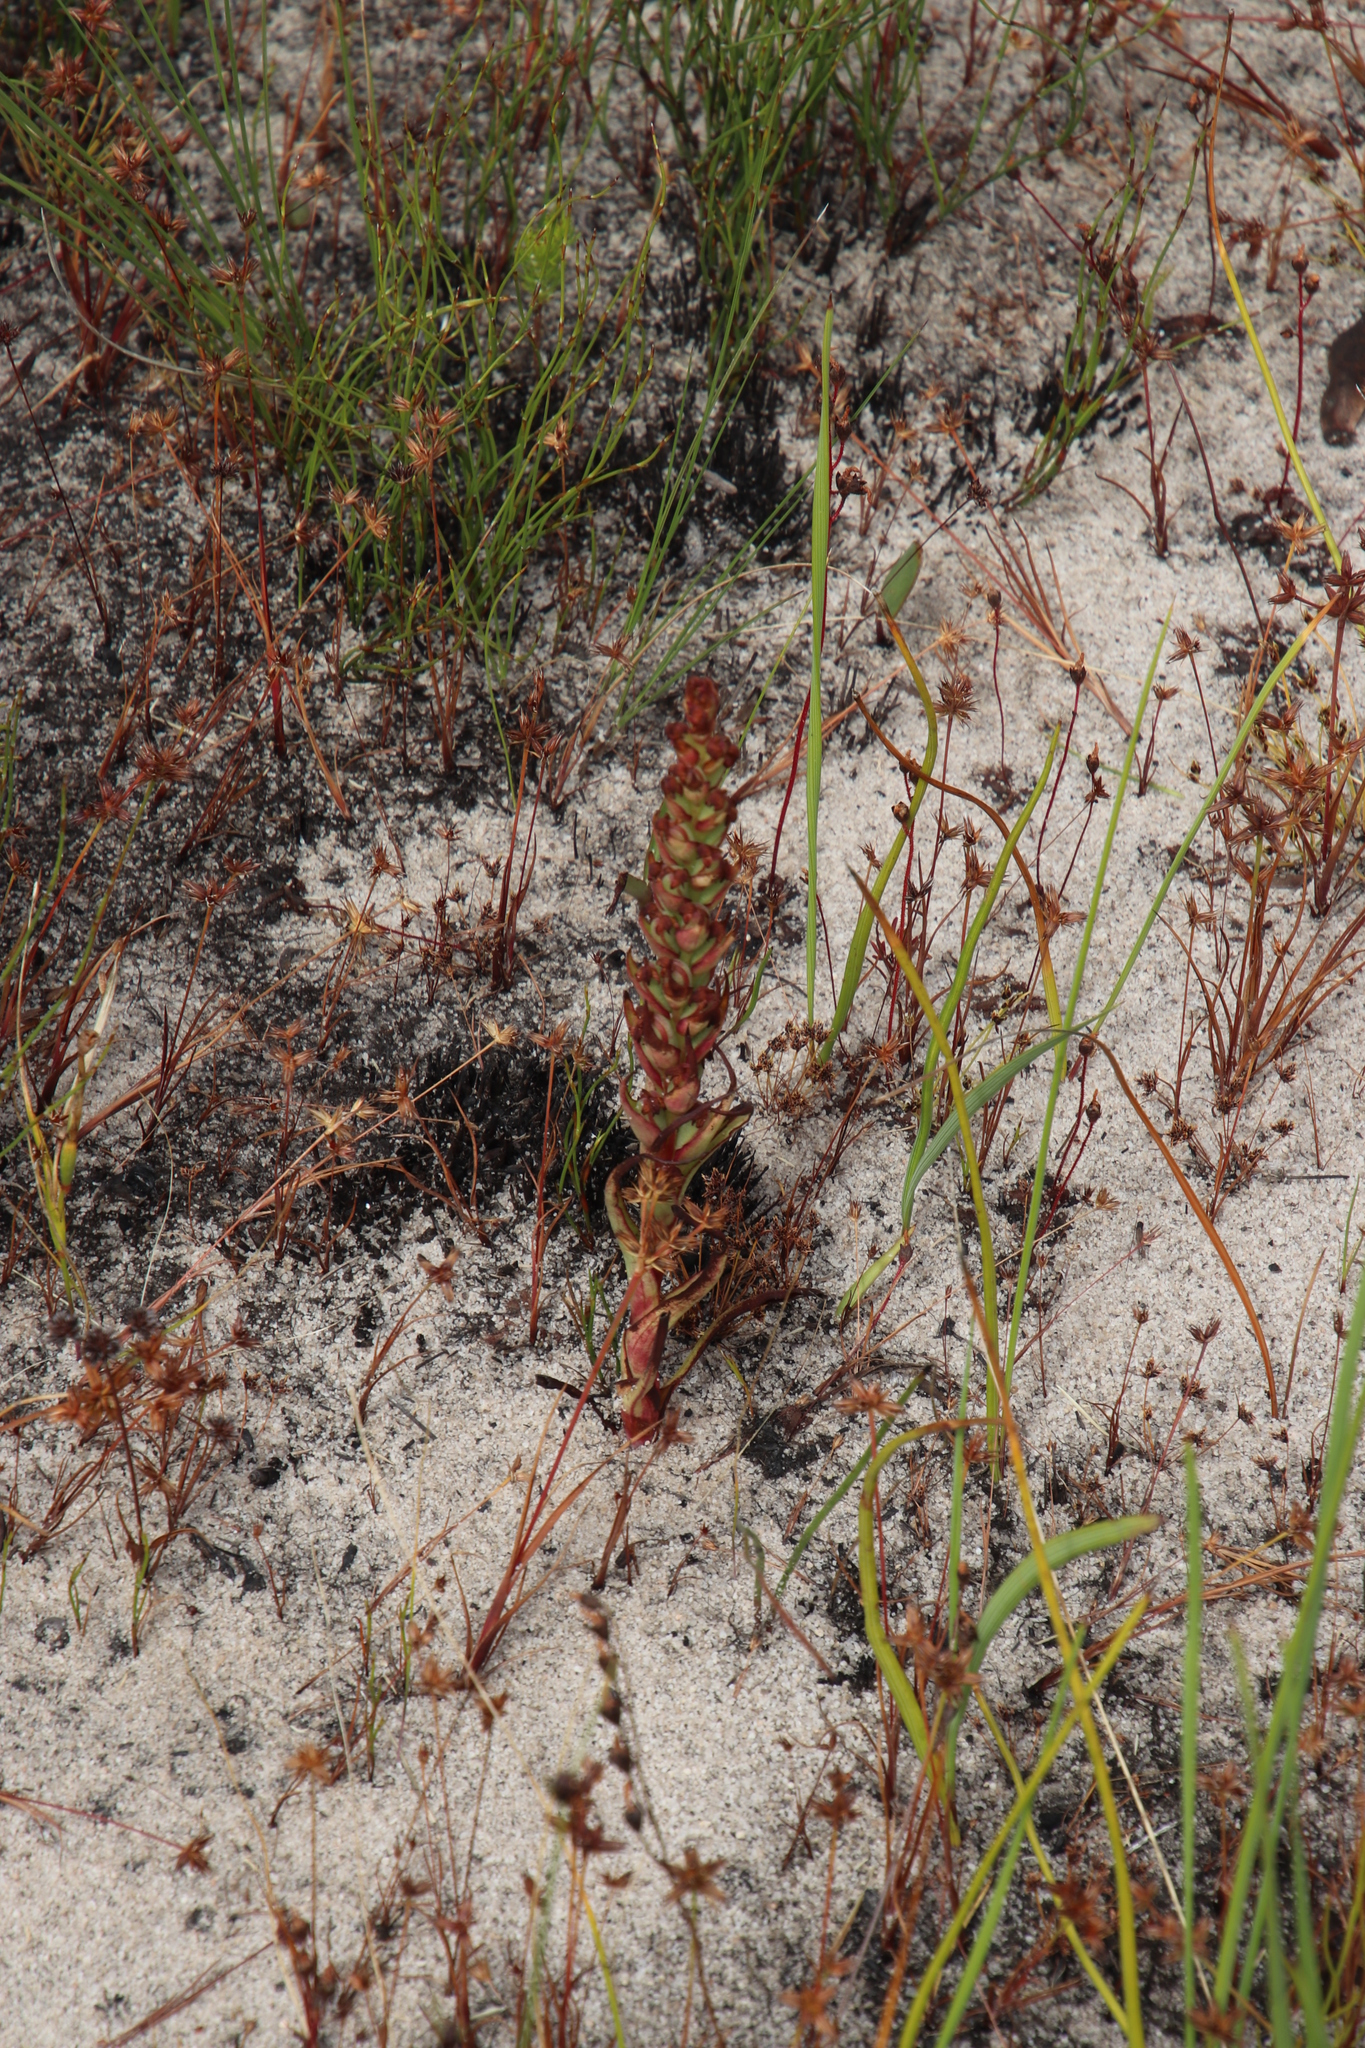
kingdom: Plantae
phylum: Tracheophyta
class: Liliopsida
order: Asparagales
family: Orchidaceae
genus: Disa
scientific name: Disa bracteata
